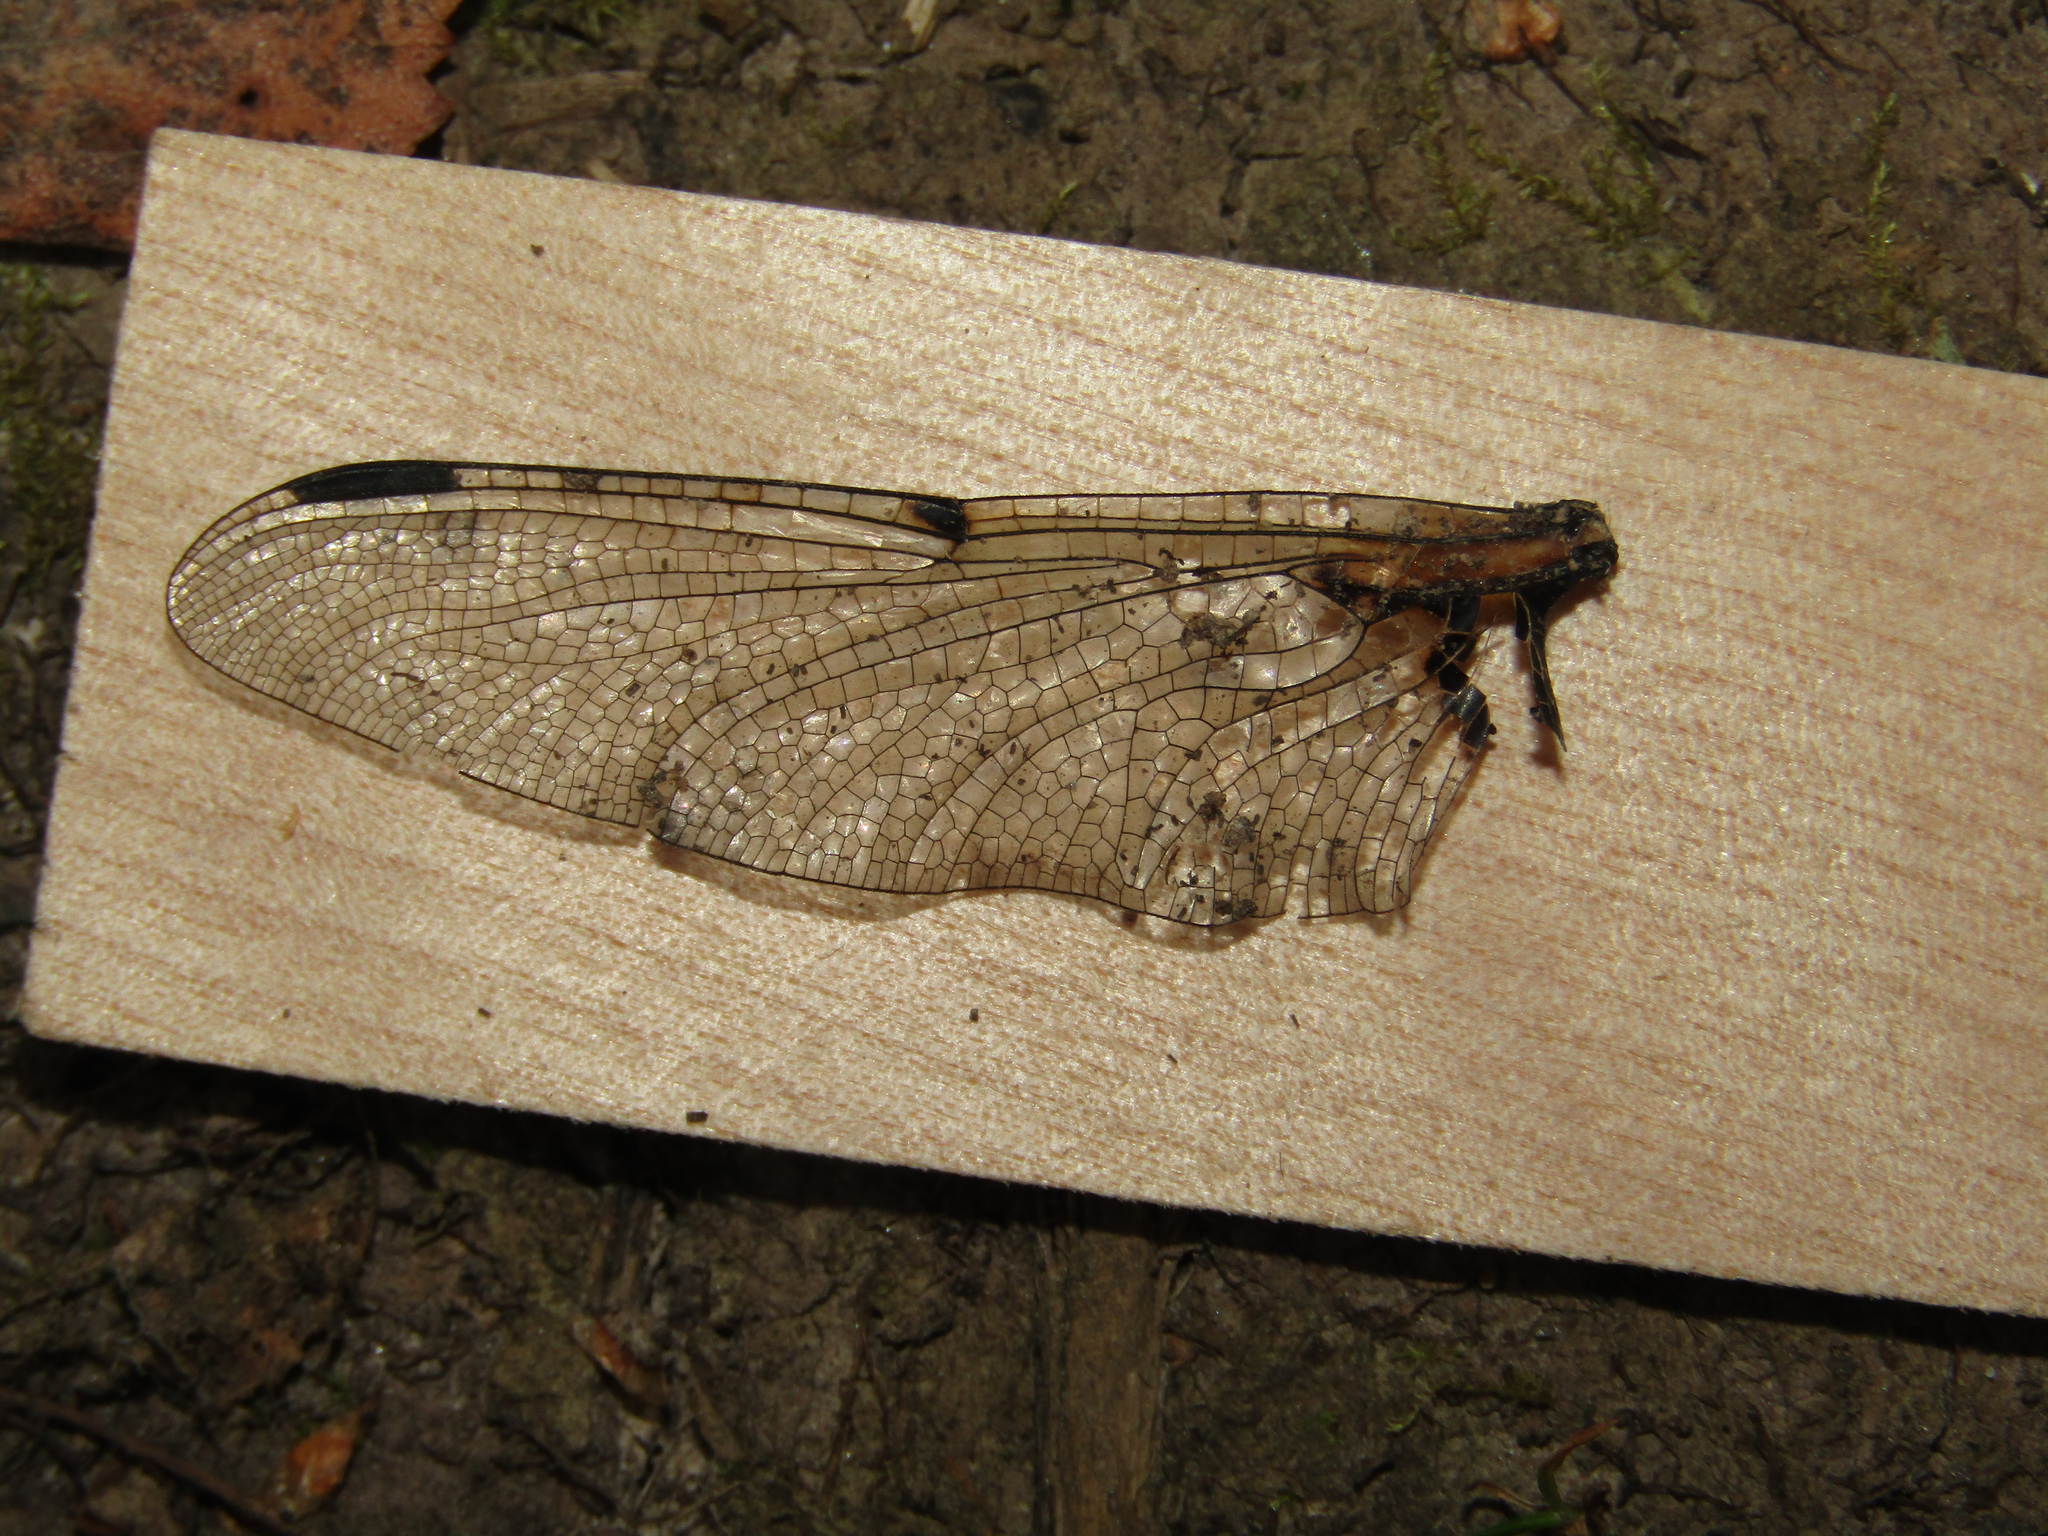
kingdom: Animalia
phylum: Arthropoda
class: Insecta
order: Odonata
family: Libellulidae
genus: Libellula
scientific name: Libellula quadrimaculata
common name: Four-spotted chaser
